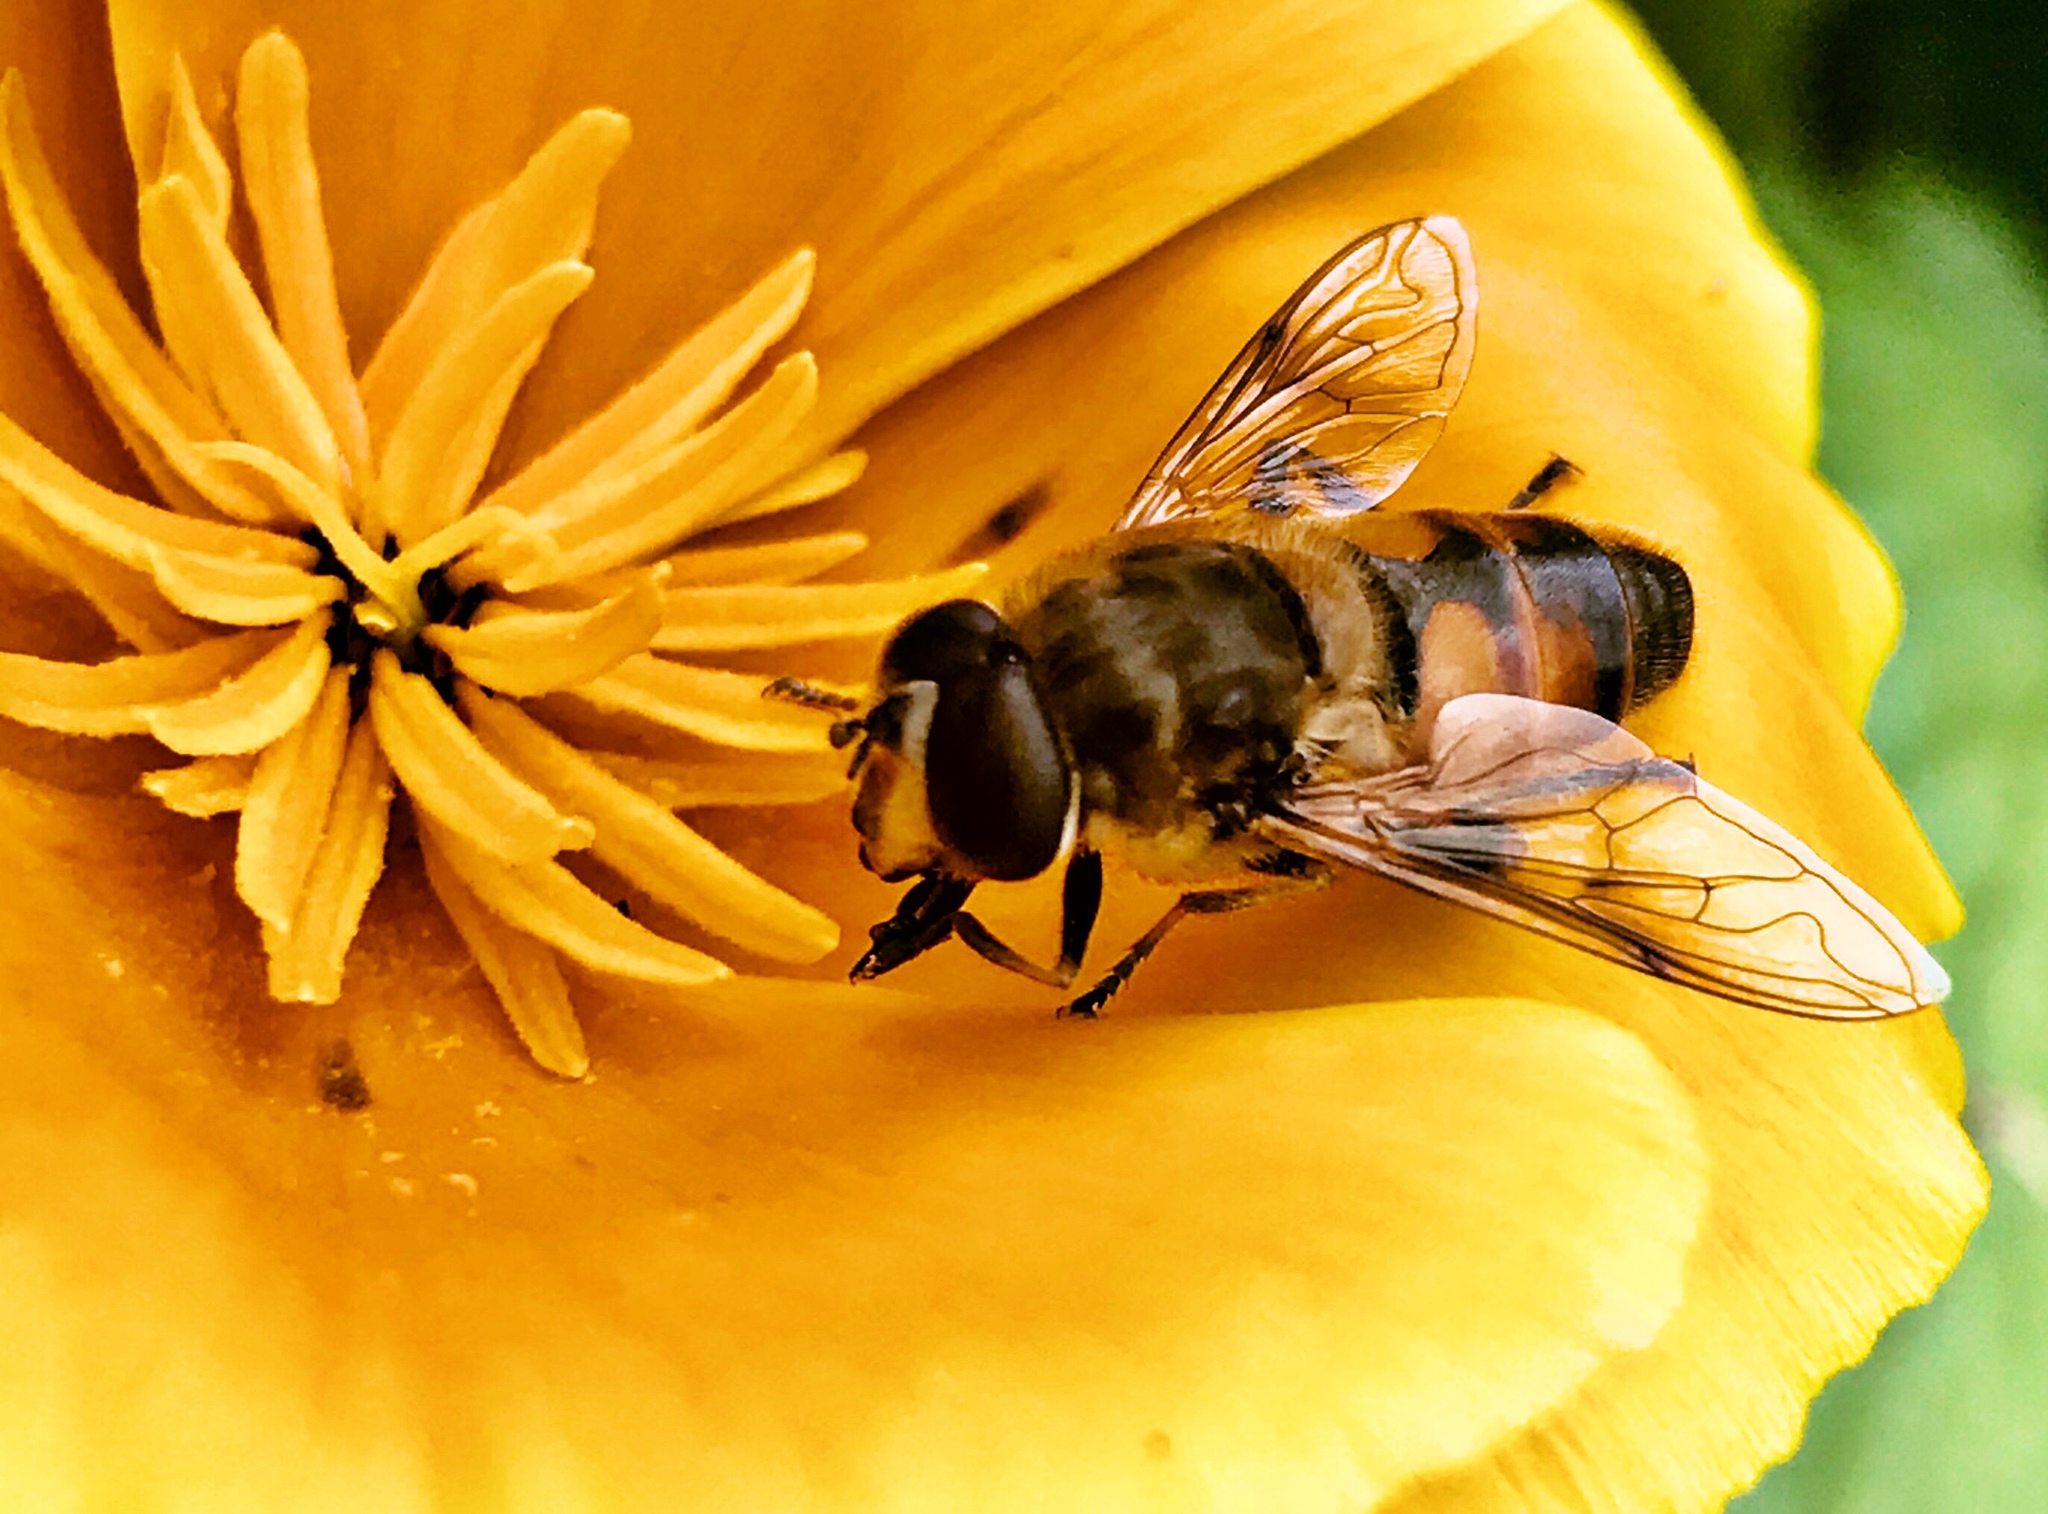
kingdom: Animalia
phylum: Arthropoda
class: Insecta
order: Diptera
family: Syrphidae
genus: Eristalis
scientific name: Eristalis tenax
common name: Drone fly
